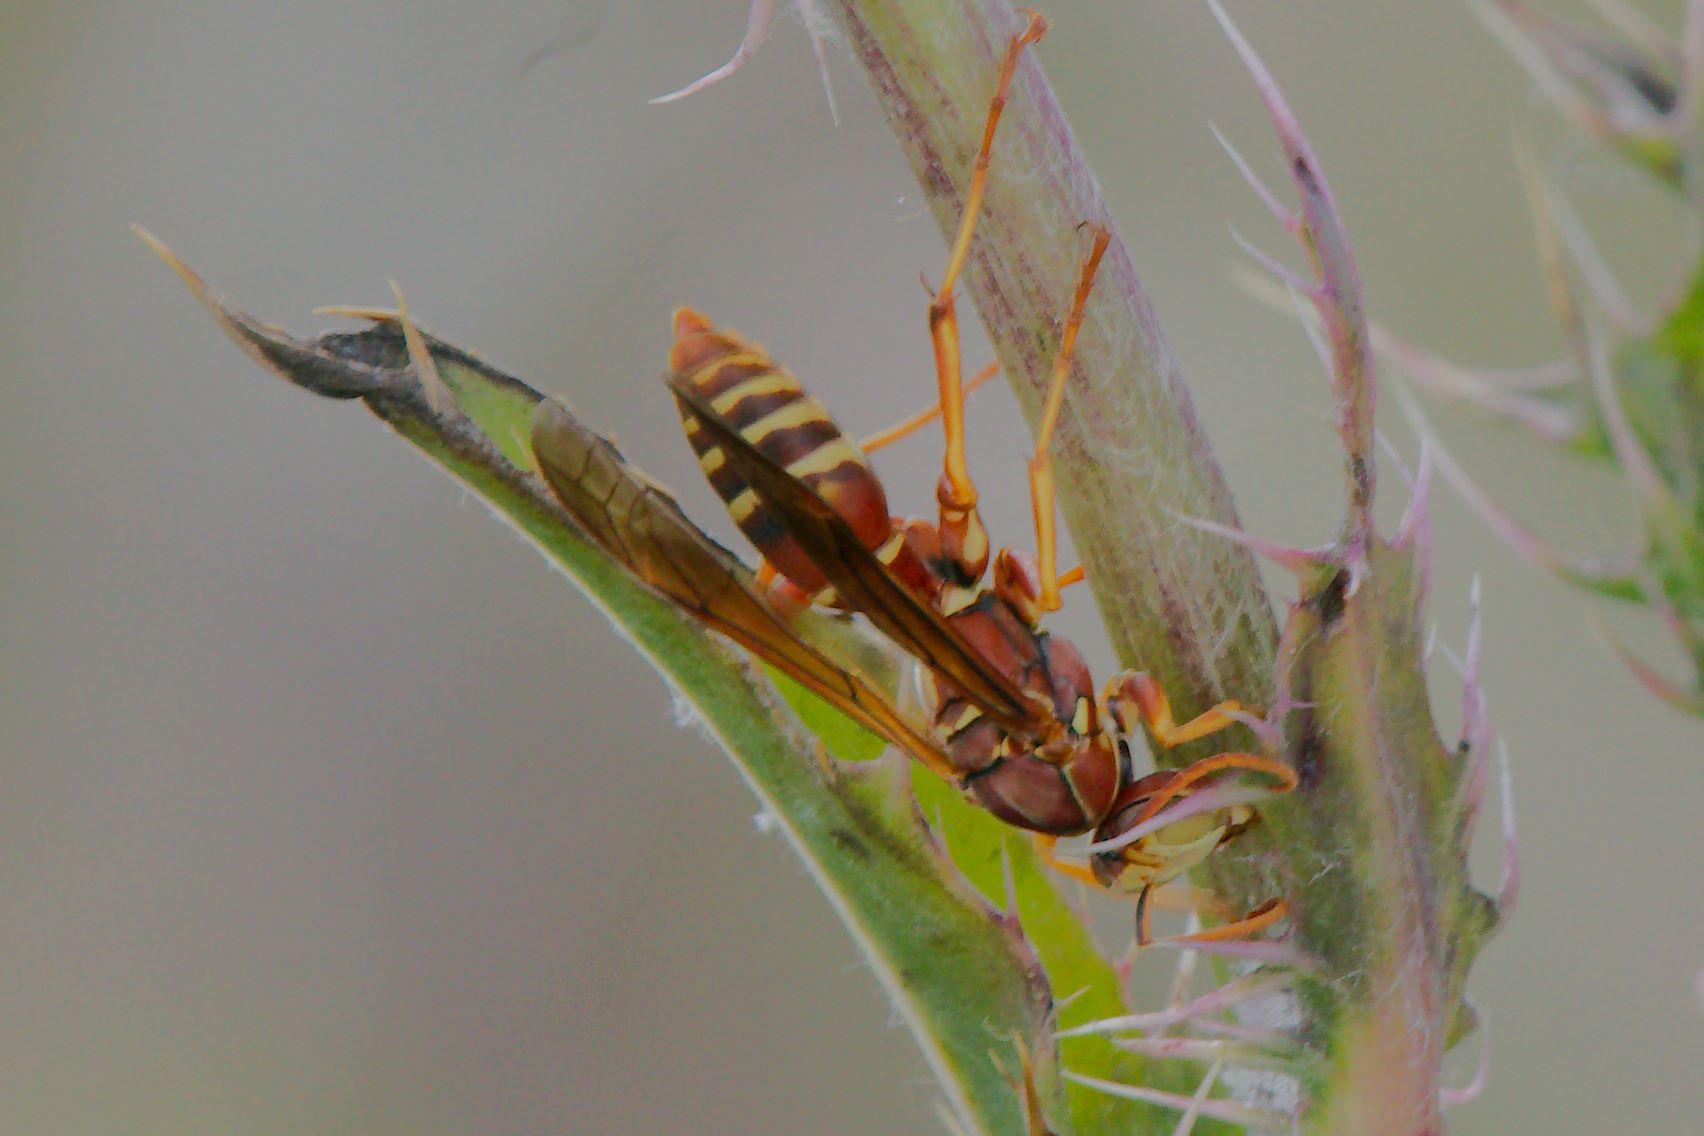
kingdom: Animalia
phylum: Arthropoda
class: Insecta
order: Hymenoptera
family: Eumenidae
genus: Polistes
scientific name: Polistes bellicosus
